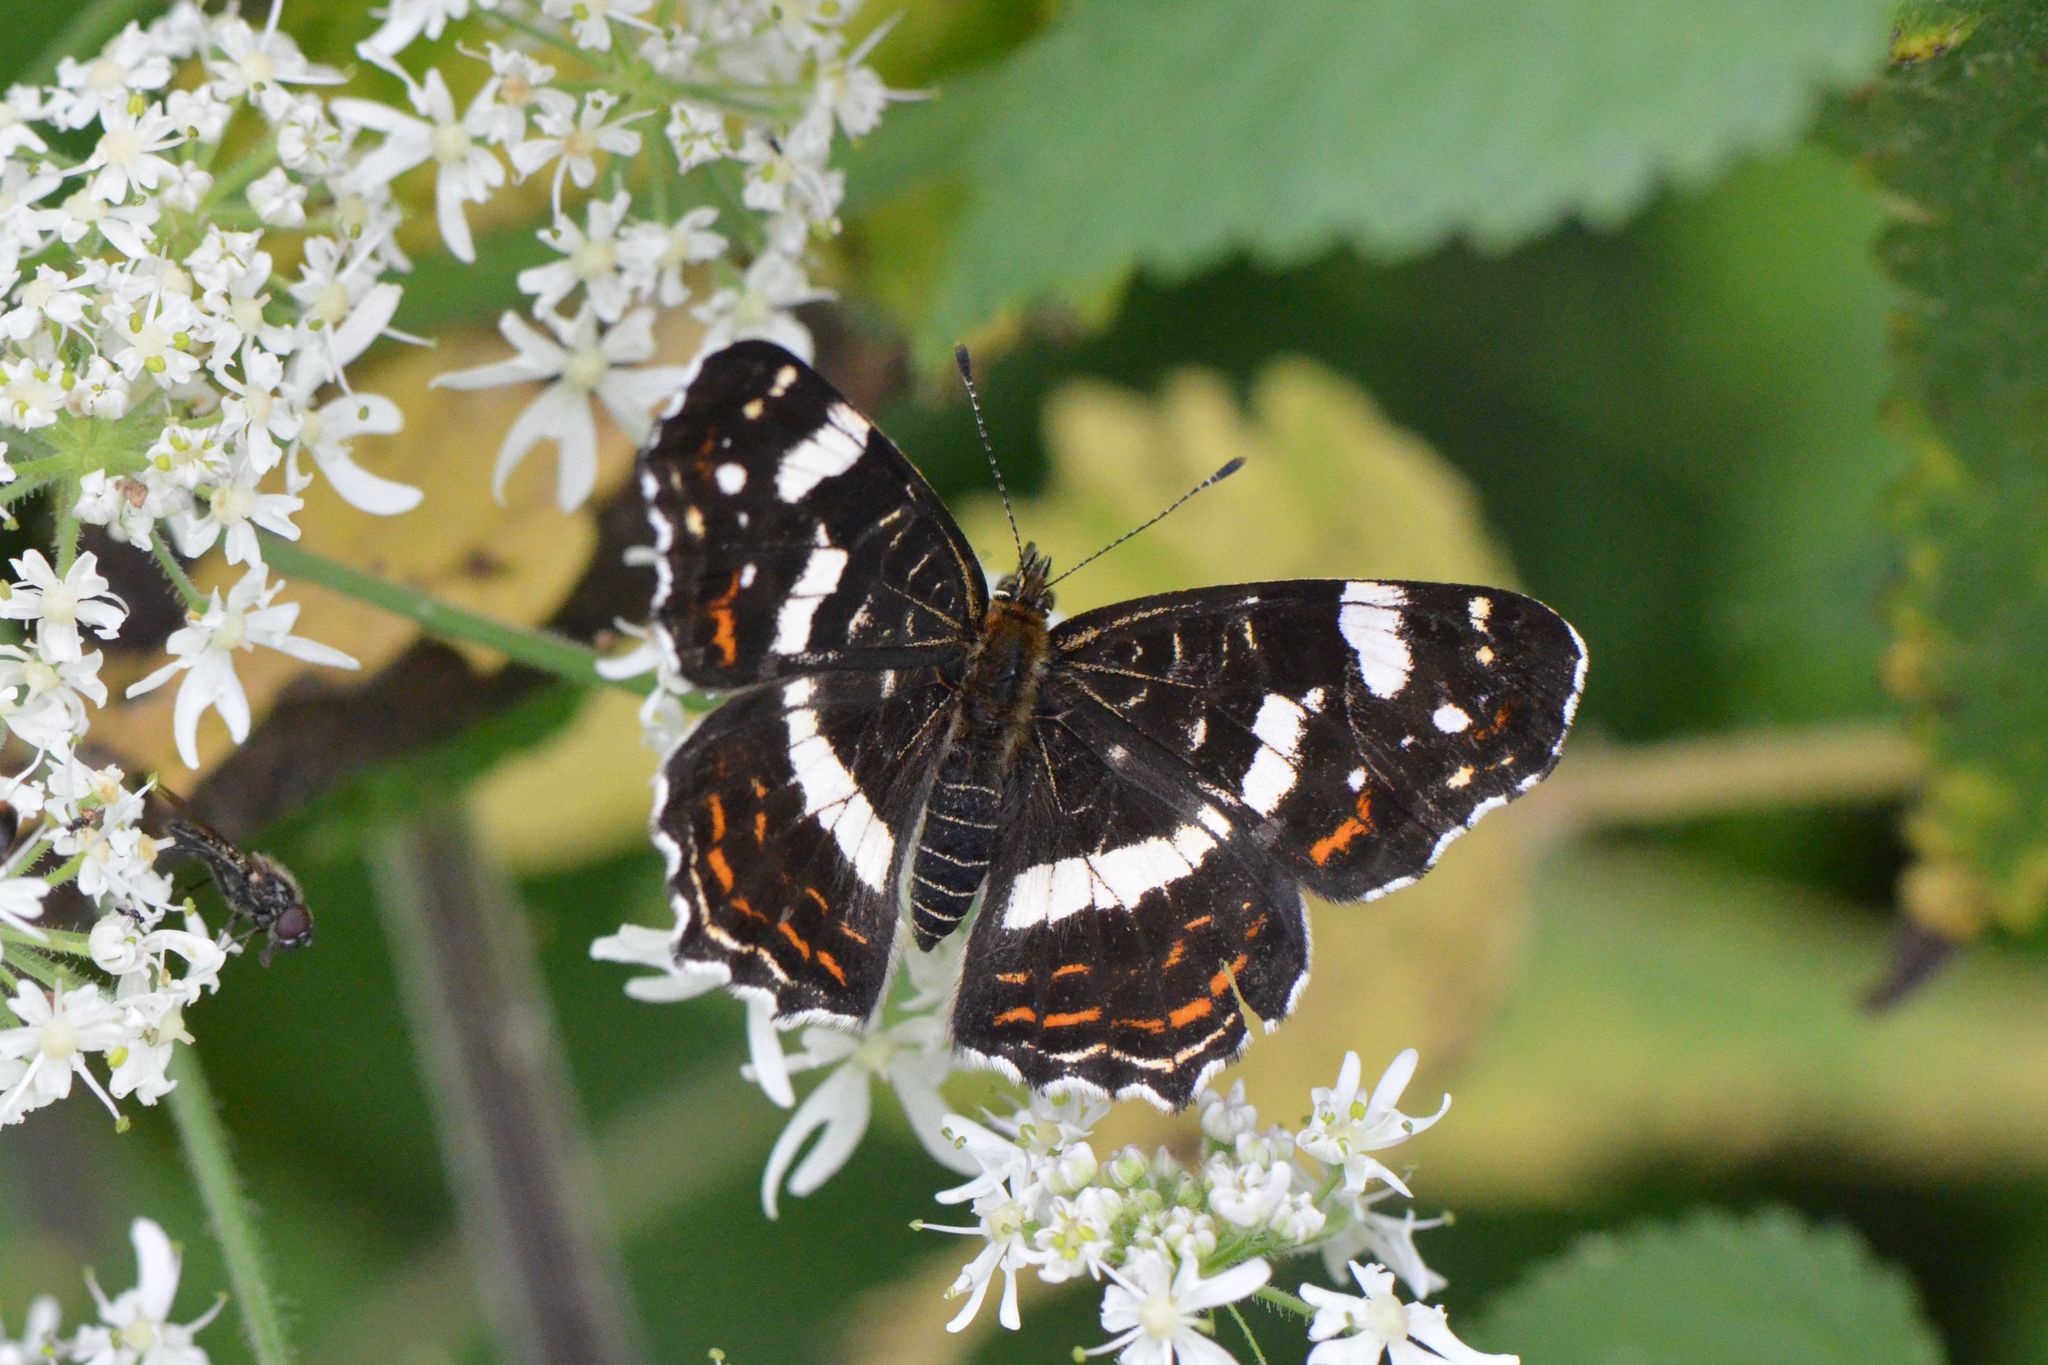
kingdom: Animalia
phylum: Arthropoda
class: Insecta
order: Lepidoptera
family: Nymphalidae
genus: Araschnia
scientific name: Araschnia levana
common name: Map butterfly
